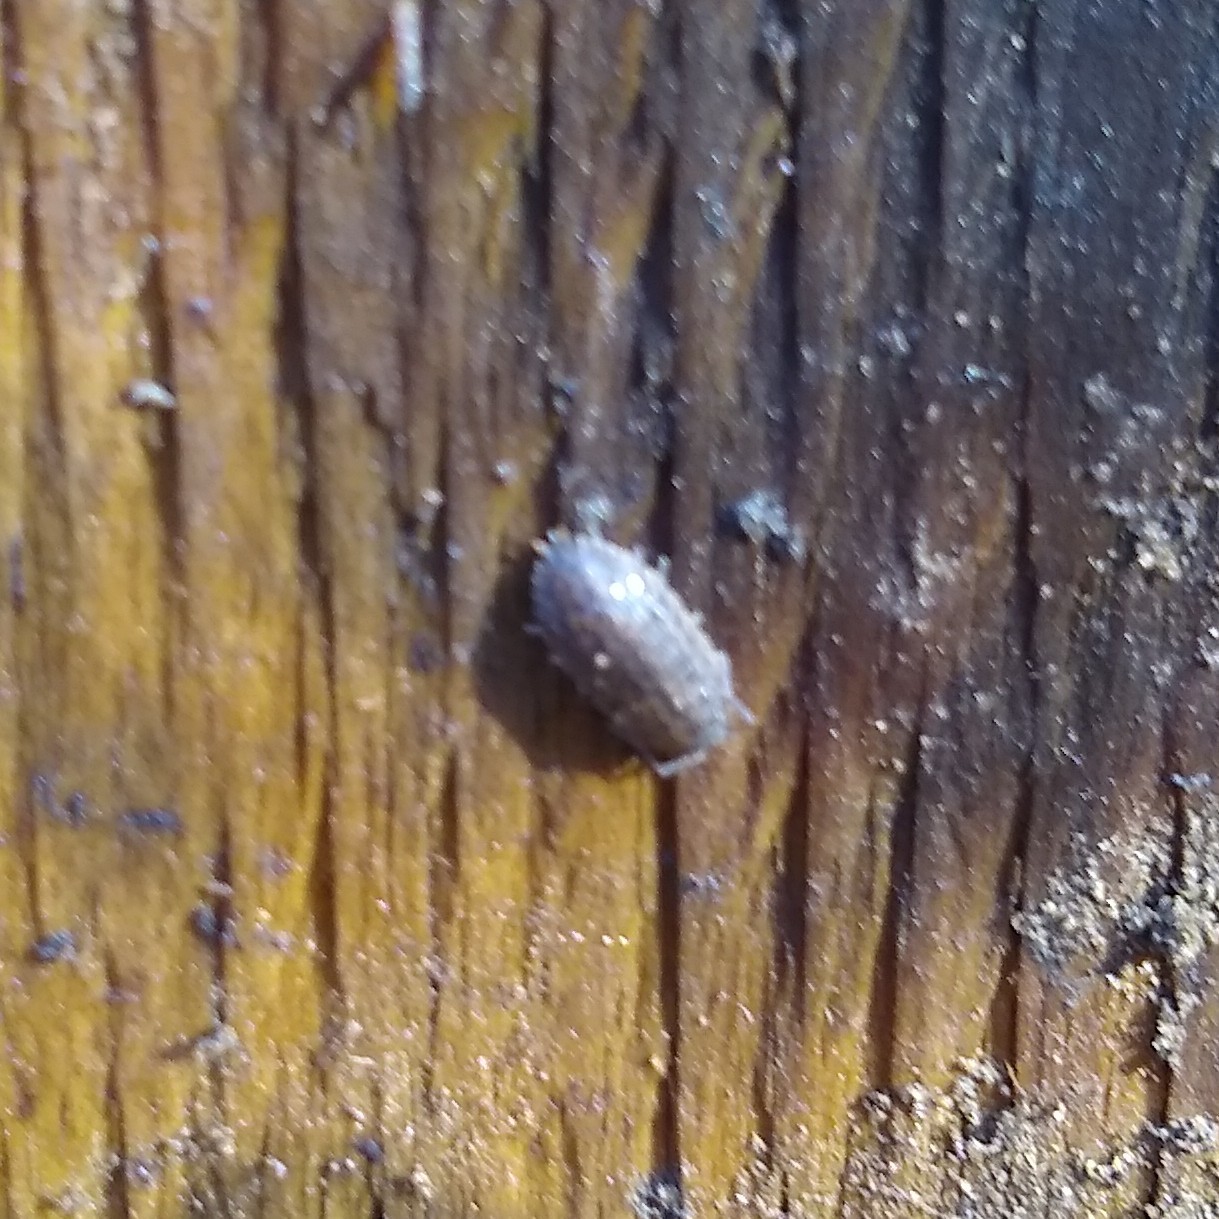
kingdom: Animalia
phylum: Arthropoda
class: Malacostraca
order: Isopoda
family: Trachelipodidae
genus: Trachelipus
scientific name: Trachelipus rathkii
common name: Isopod
